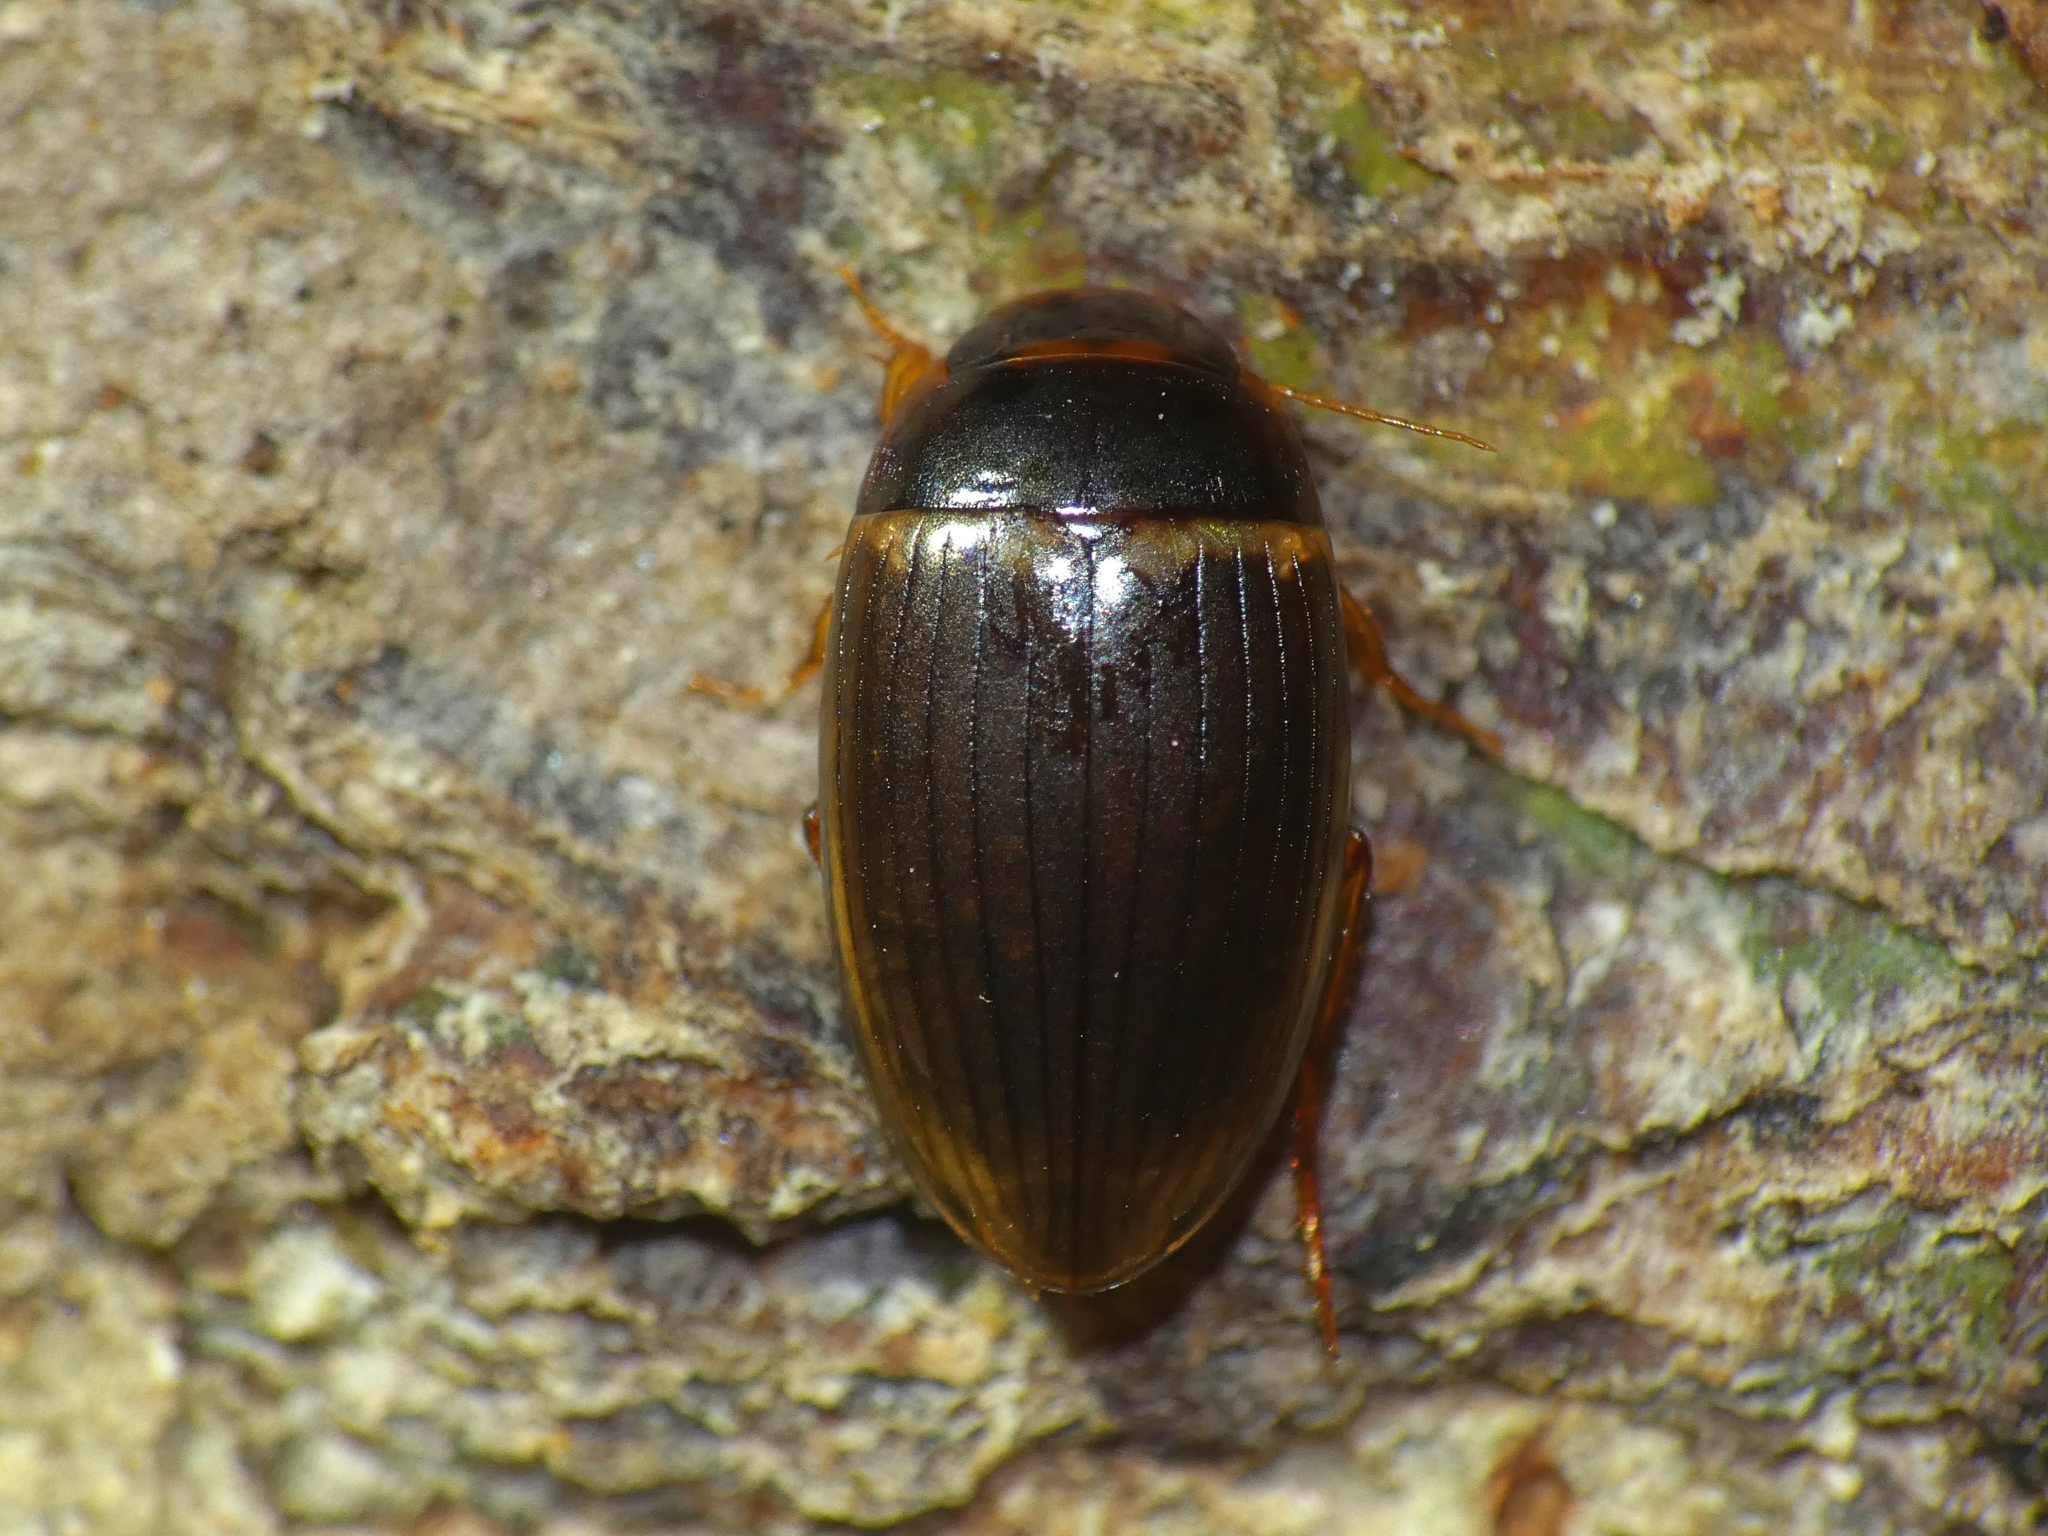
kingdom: Animalia
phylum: Arthropoda
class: Insecta
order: Coleoptera
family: Dytiscidae
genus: Copelatus
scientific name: Copelatus portior
